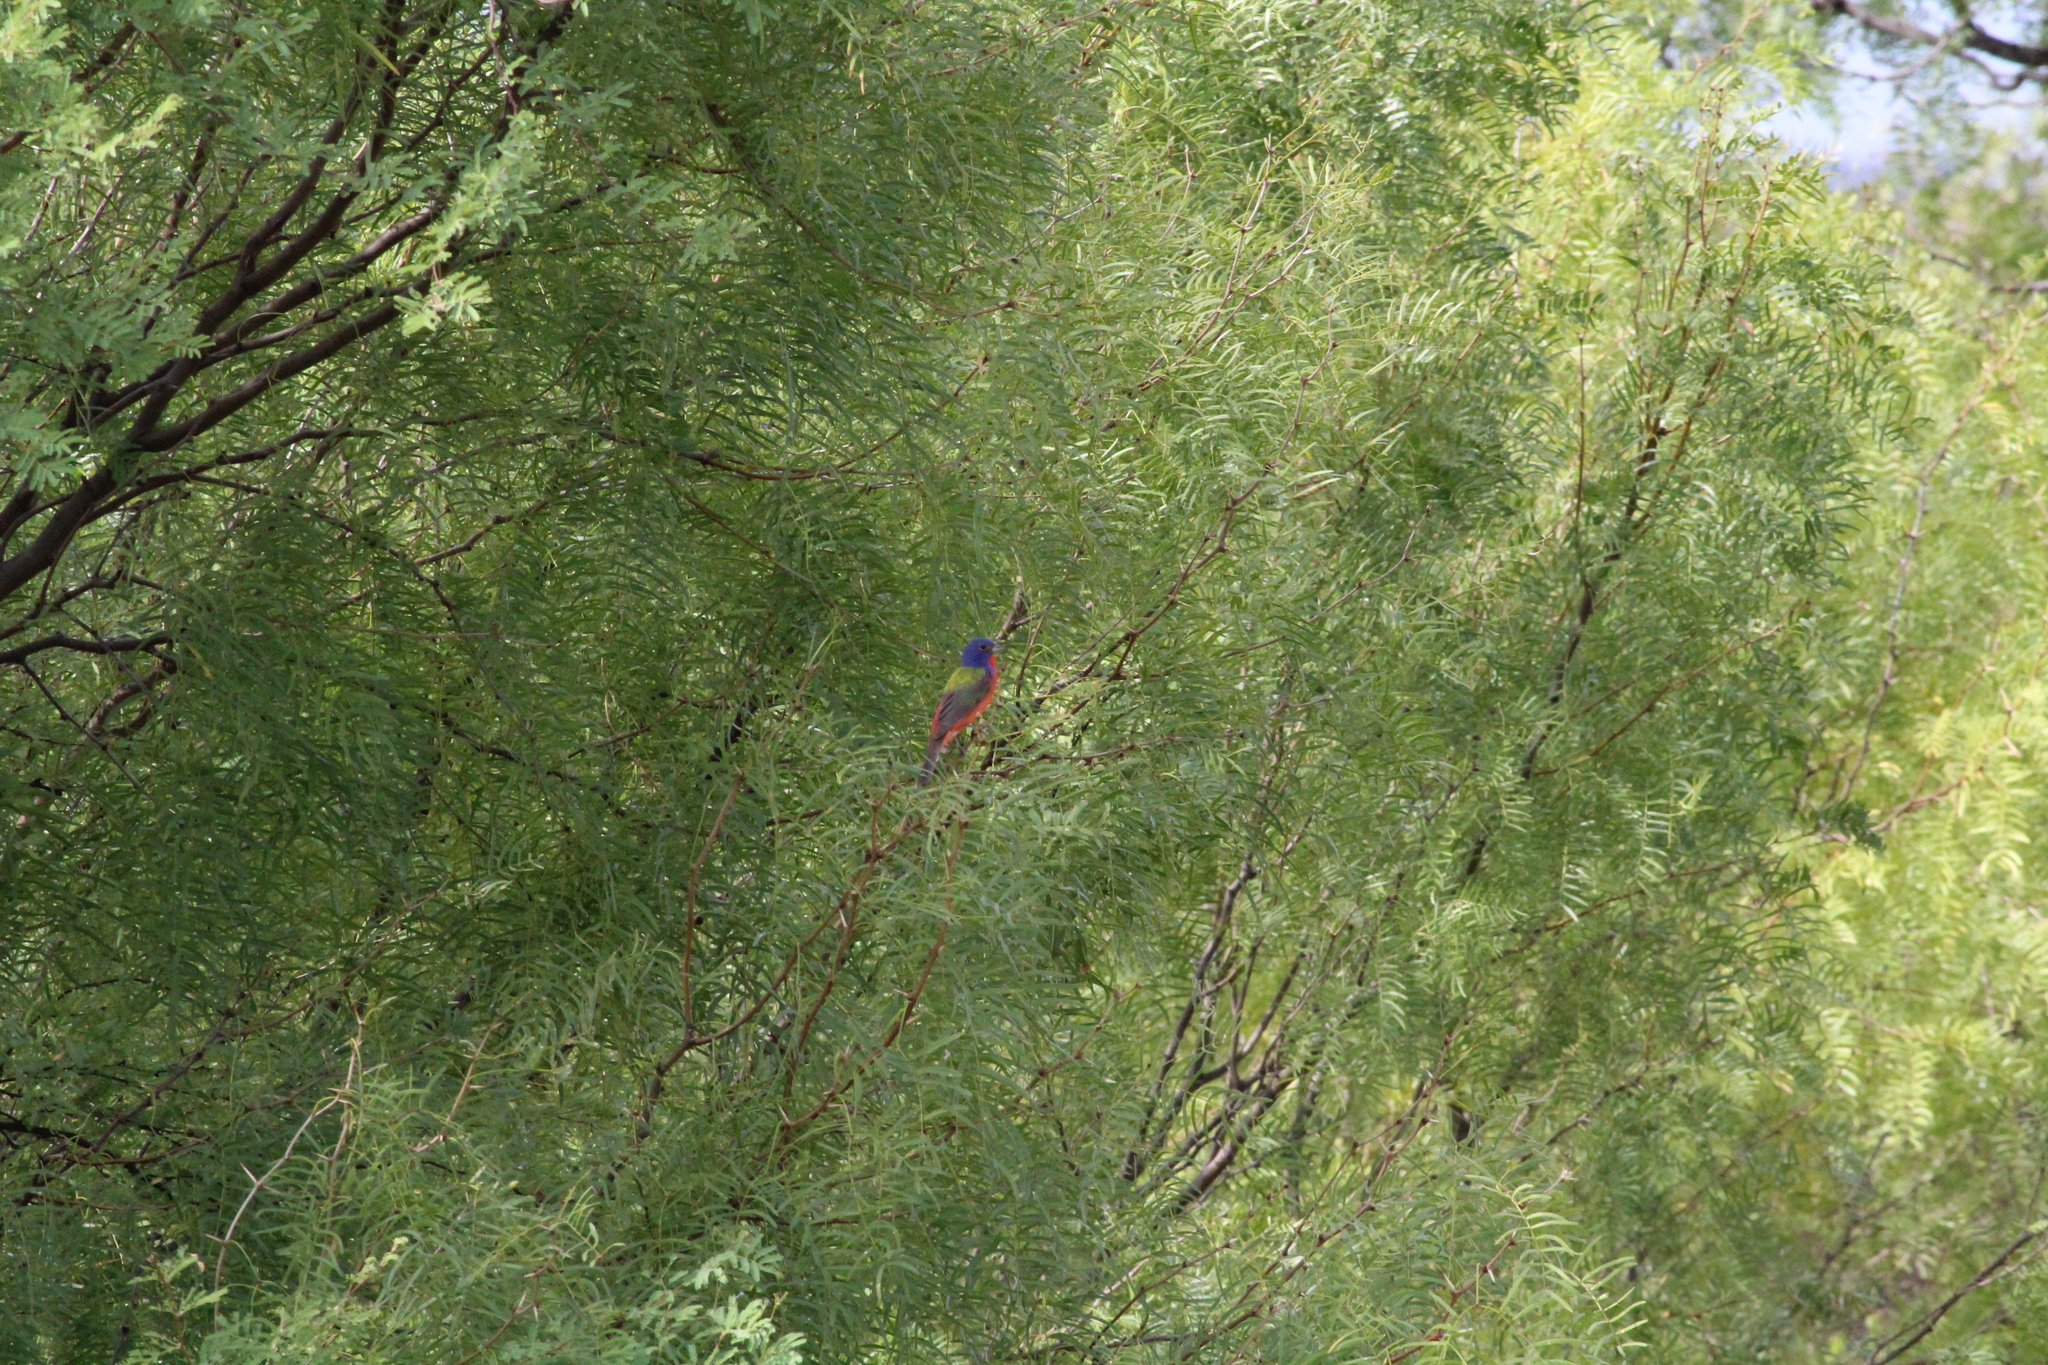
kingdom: Animalia
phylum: Chordata
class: Aves
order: Passeriformes
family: Cardinalidae
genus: Passerina
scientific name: Passerina ciris
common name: Painted bunting
